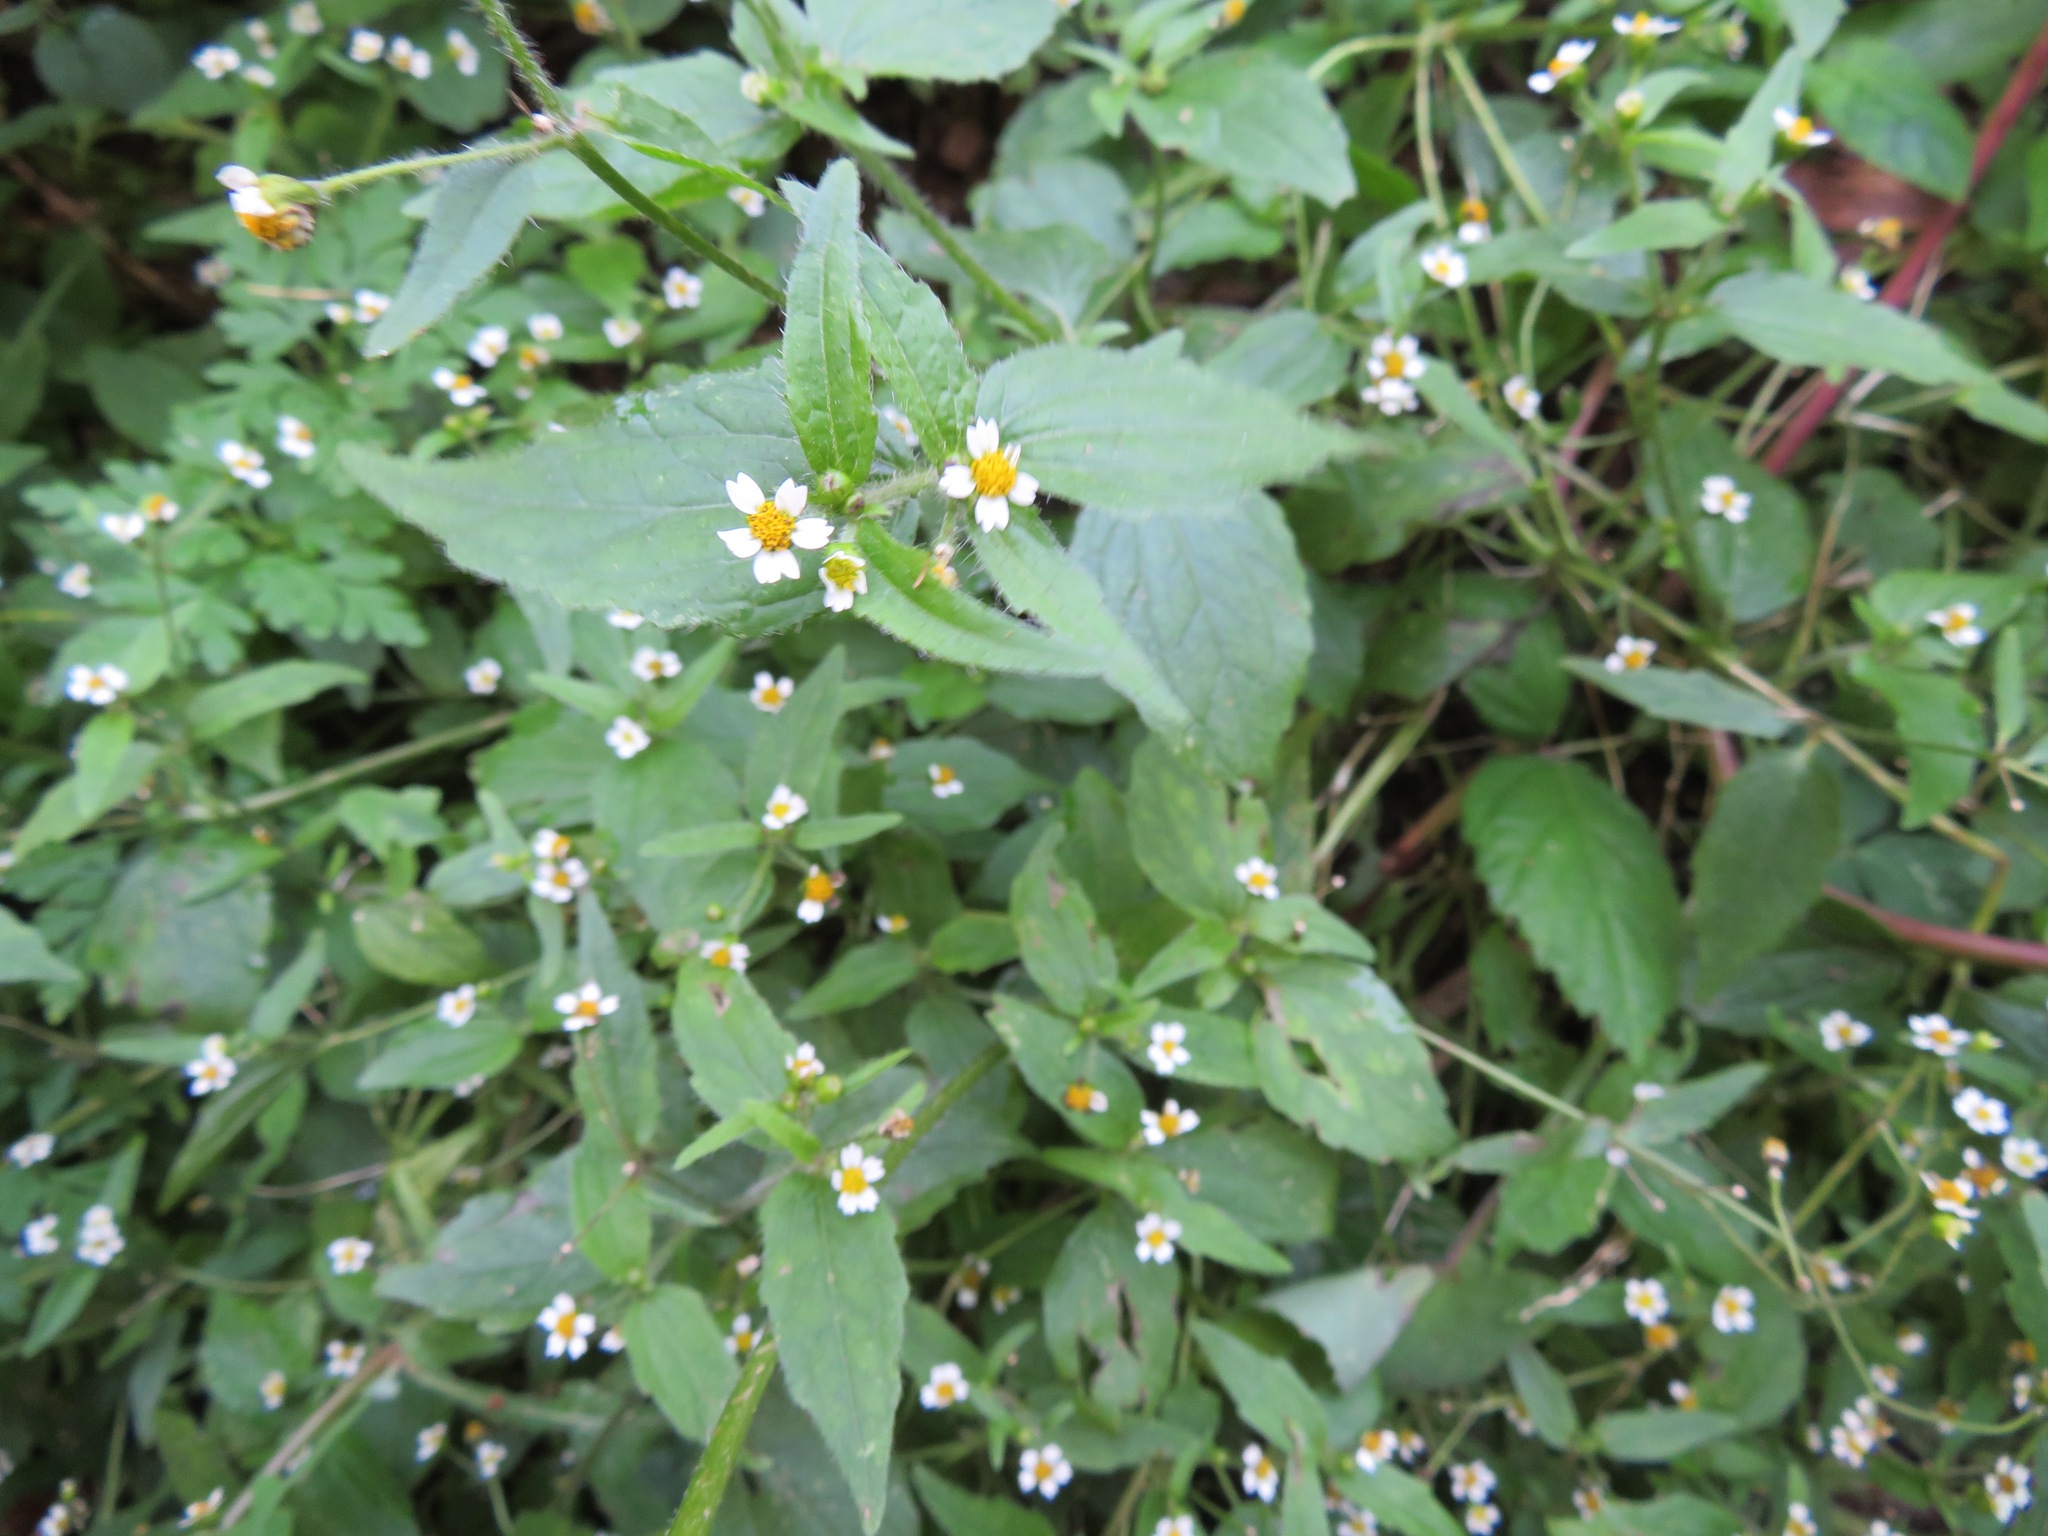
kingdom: Plantae
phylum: Tracheophyta
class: Magnoliopsida
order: Asterales
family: Asteraceae
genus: Galinsoga
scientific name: Galinsoga quadriradiata
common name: Shaggy soldier
